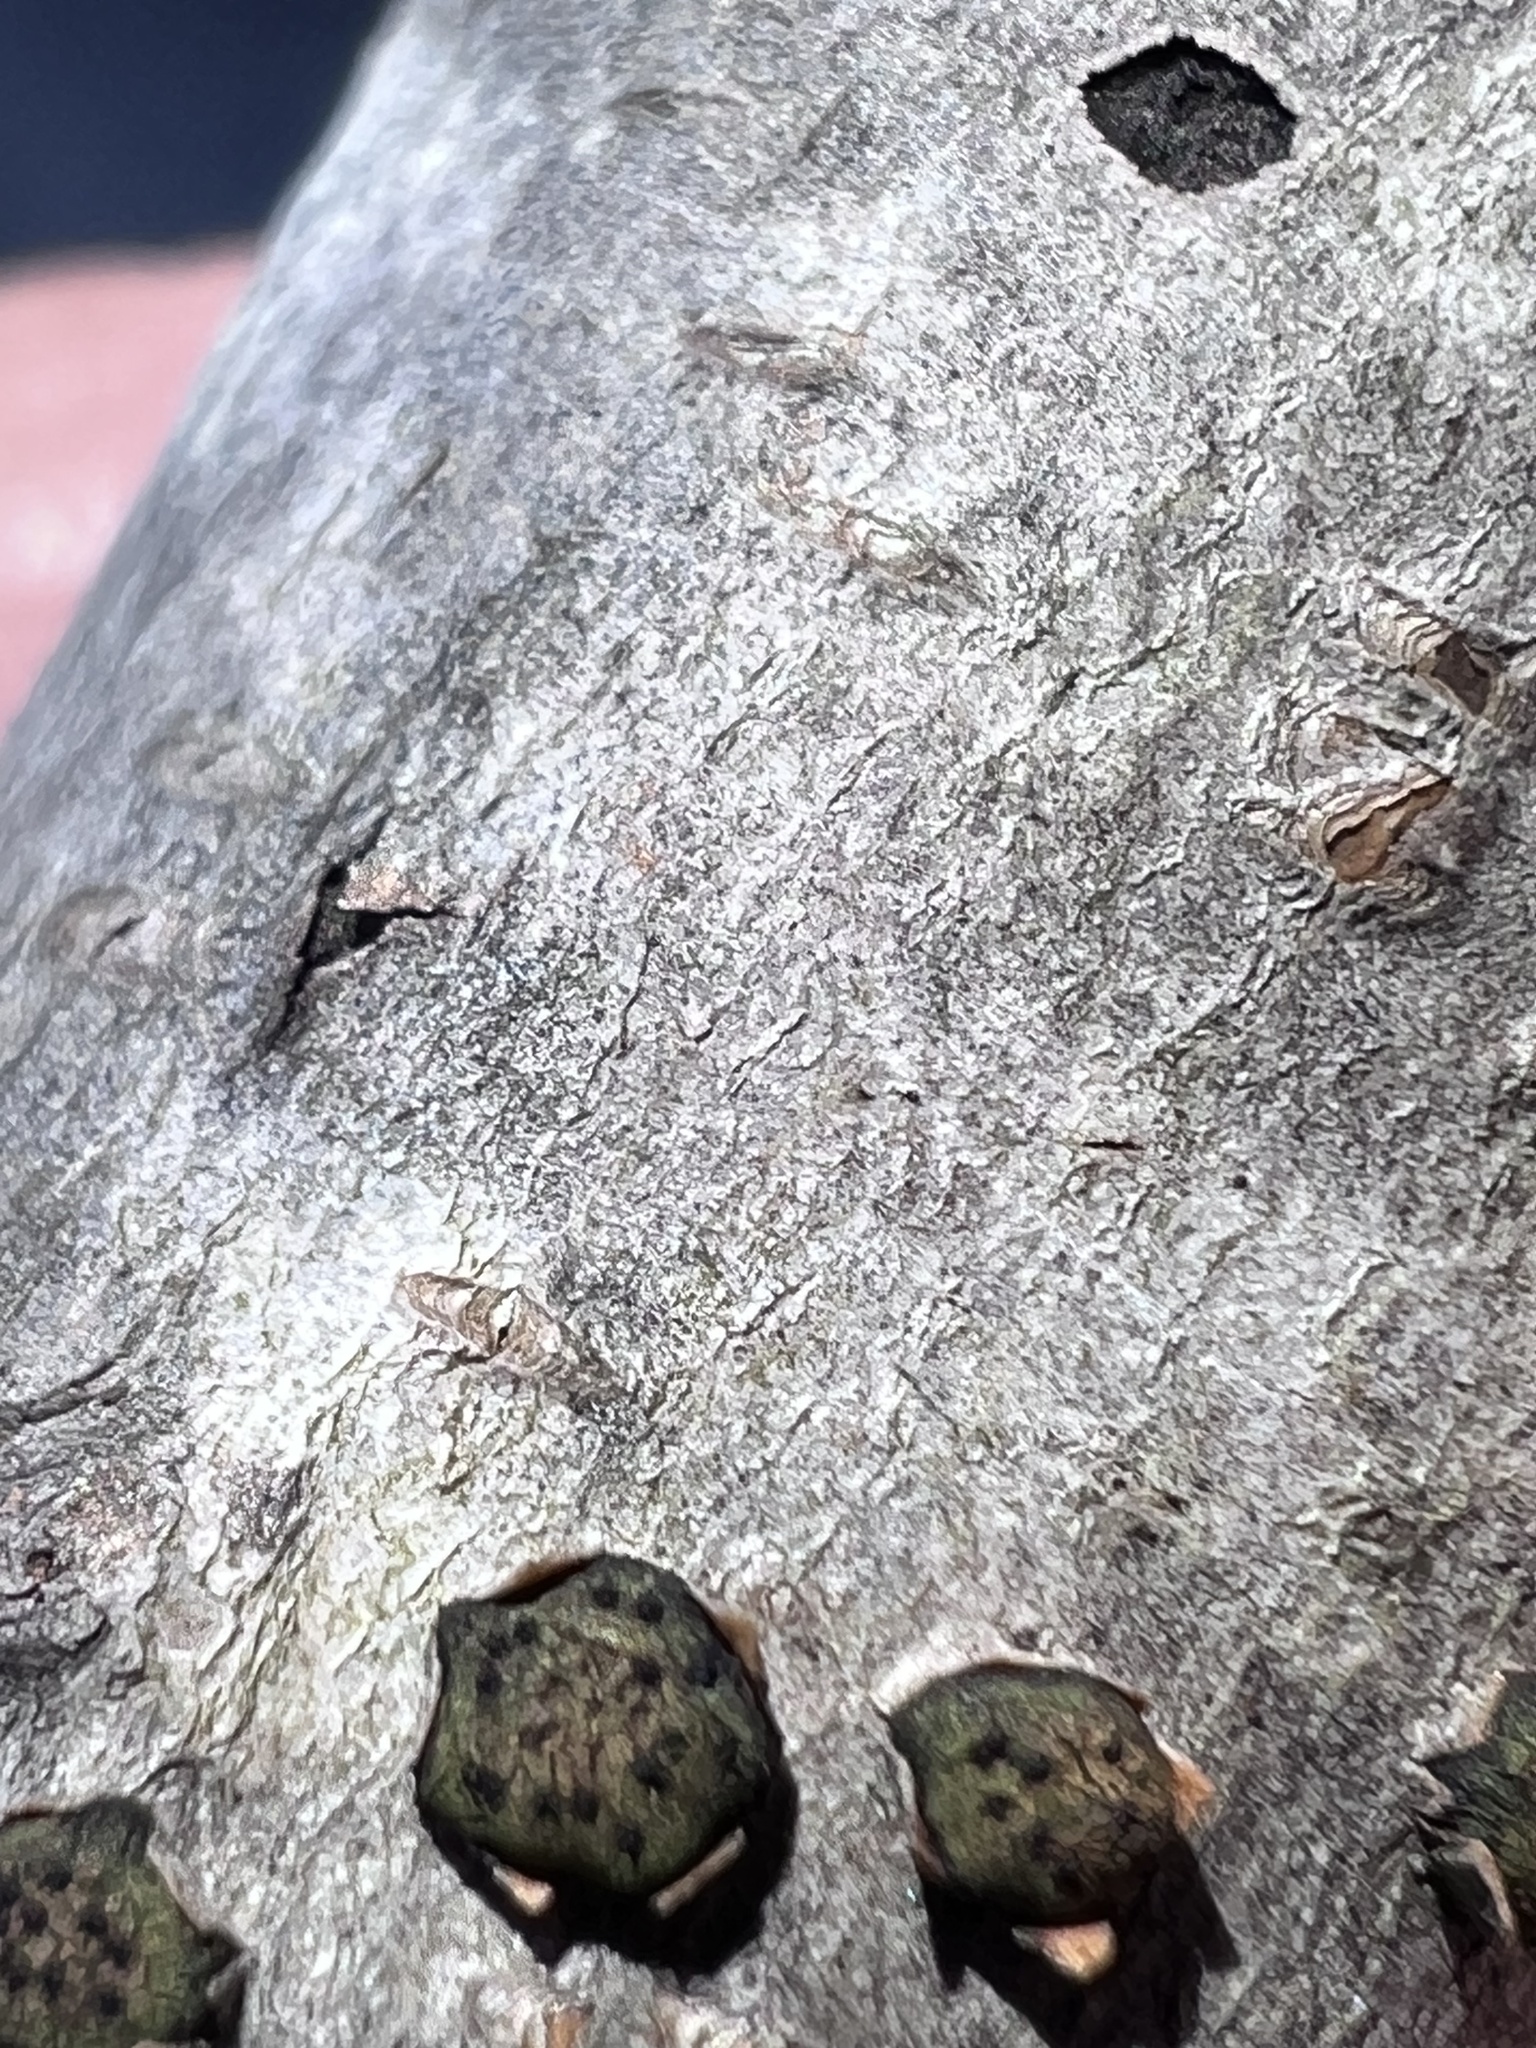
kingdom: Fungi
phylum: Ascomycota
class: Sordariomycetes
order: Xylariales
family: Diatrypaceae
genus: Diatrype
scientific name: Diatrype virescens
